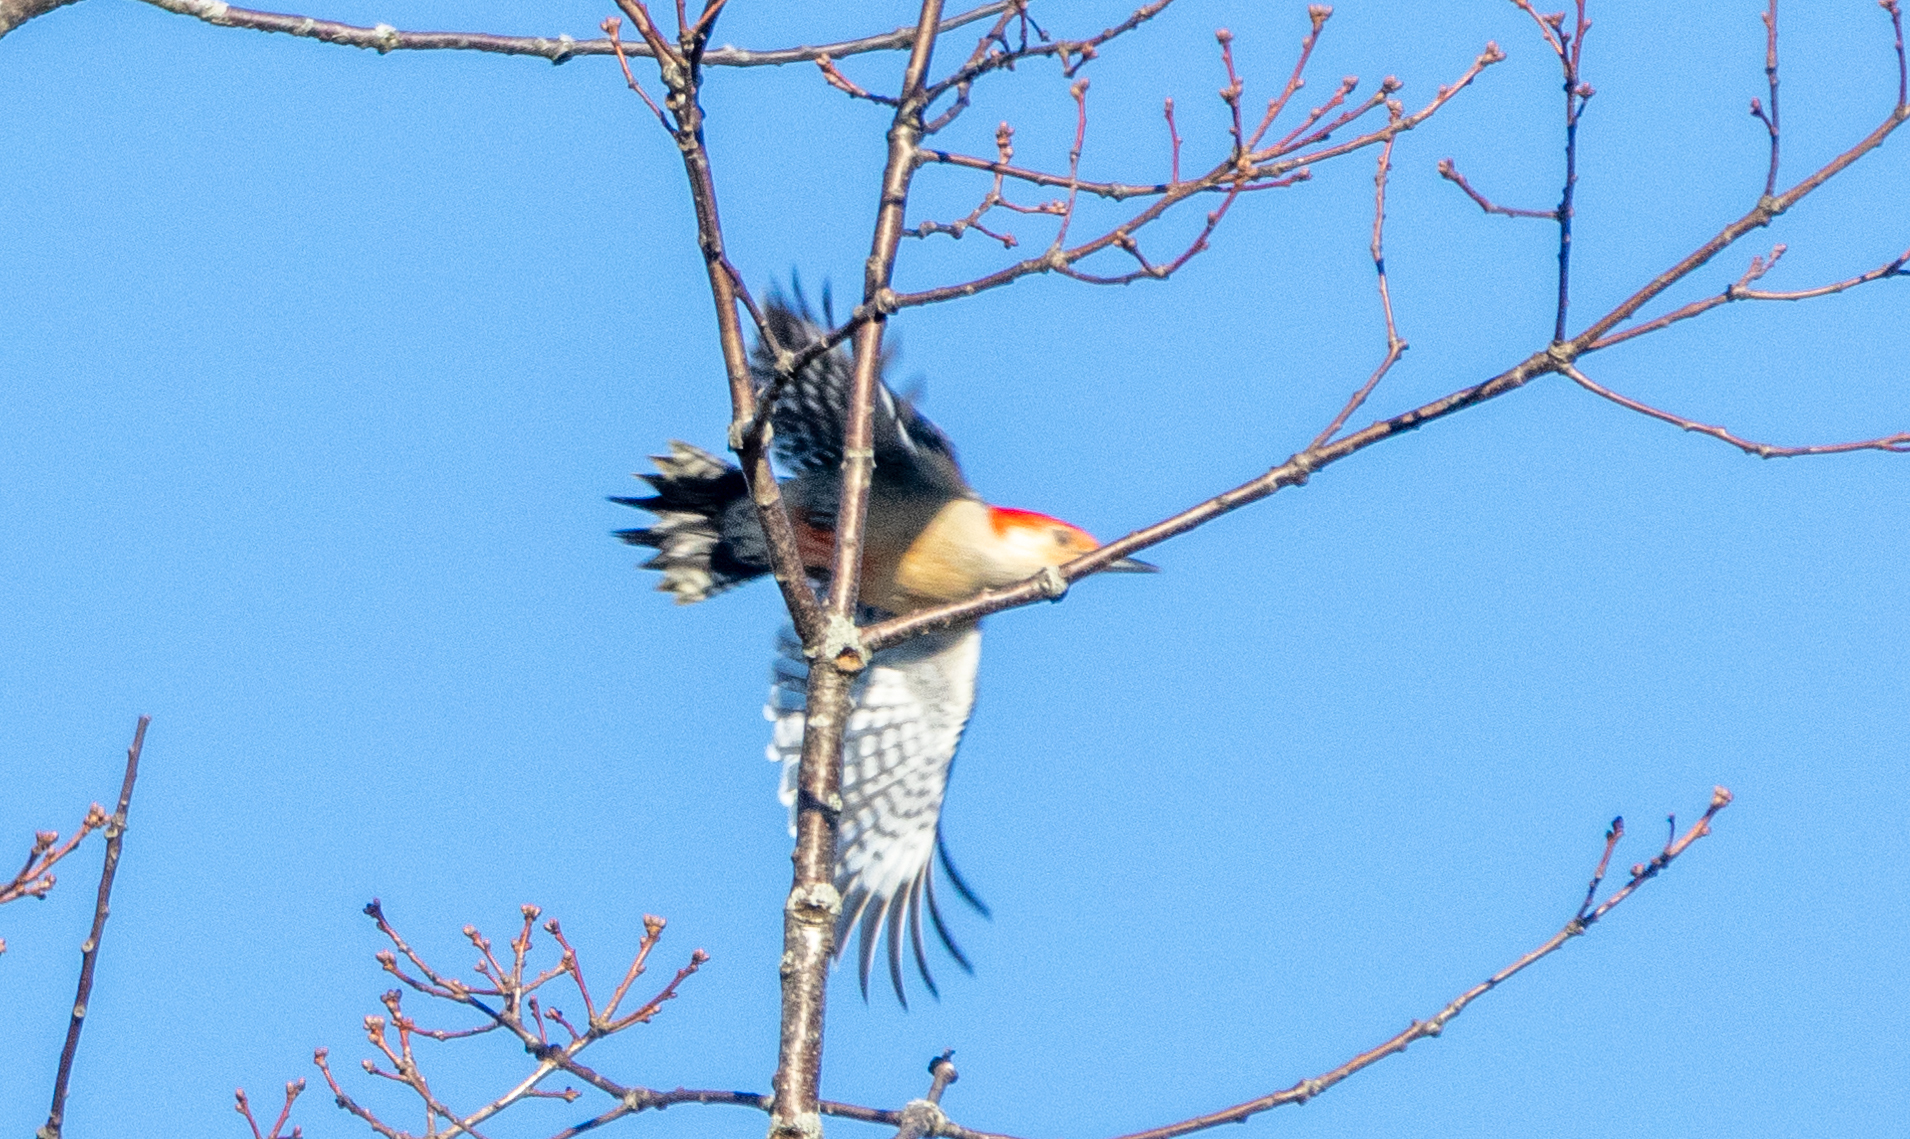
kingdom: Animalia
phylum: Chordata
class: Aves
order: Piciformes
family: Picidae
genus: Melanerpes
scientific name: Melanerpes carolinus
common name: Red-bellied woodpecker
